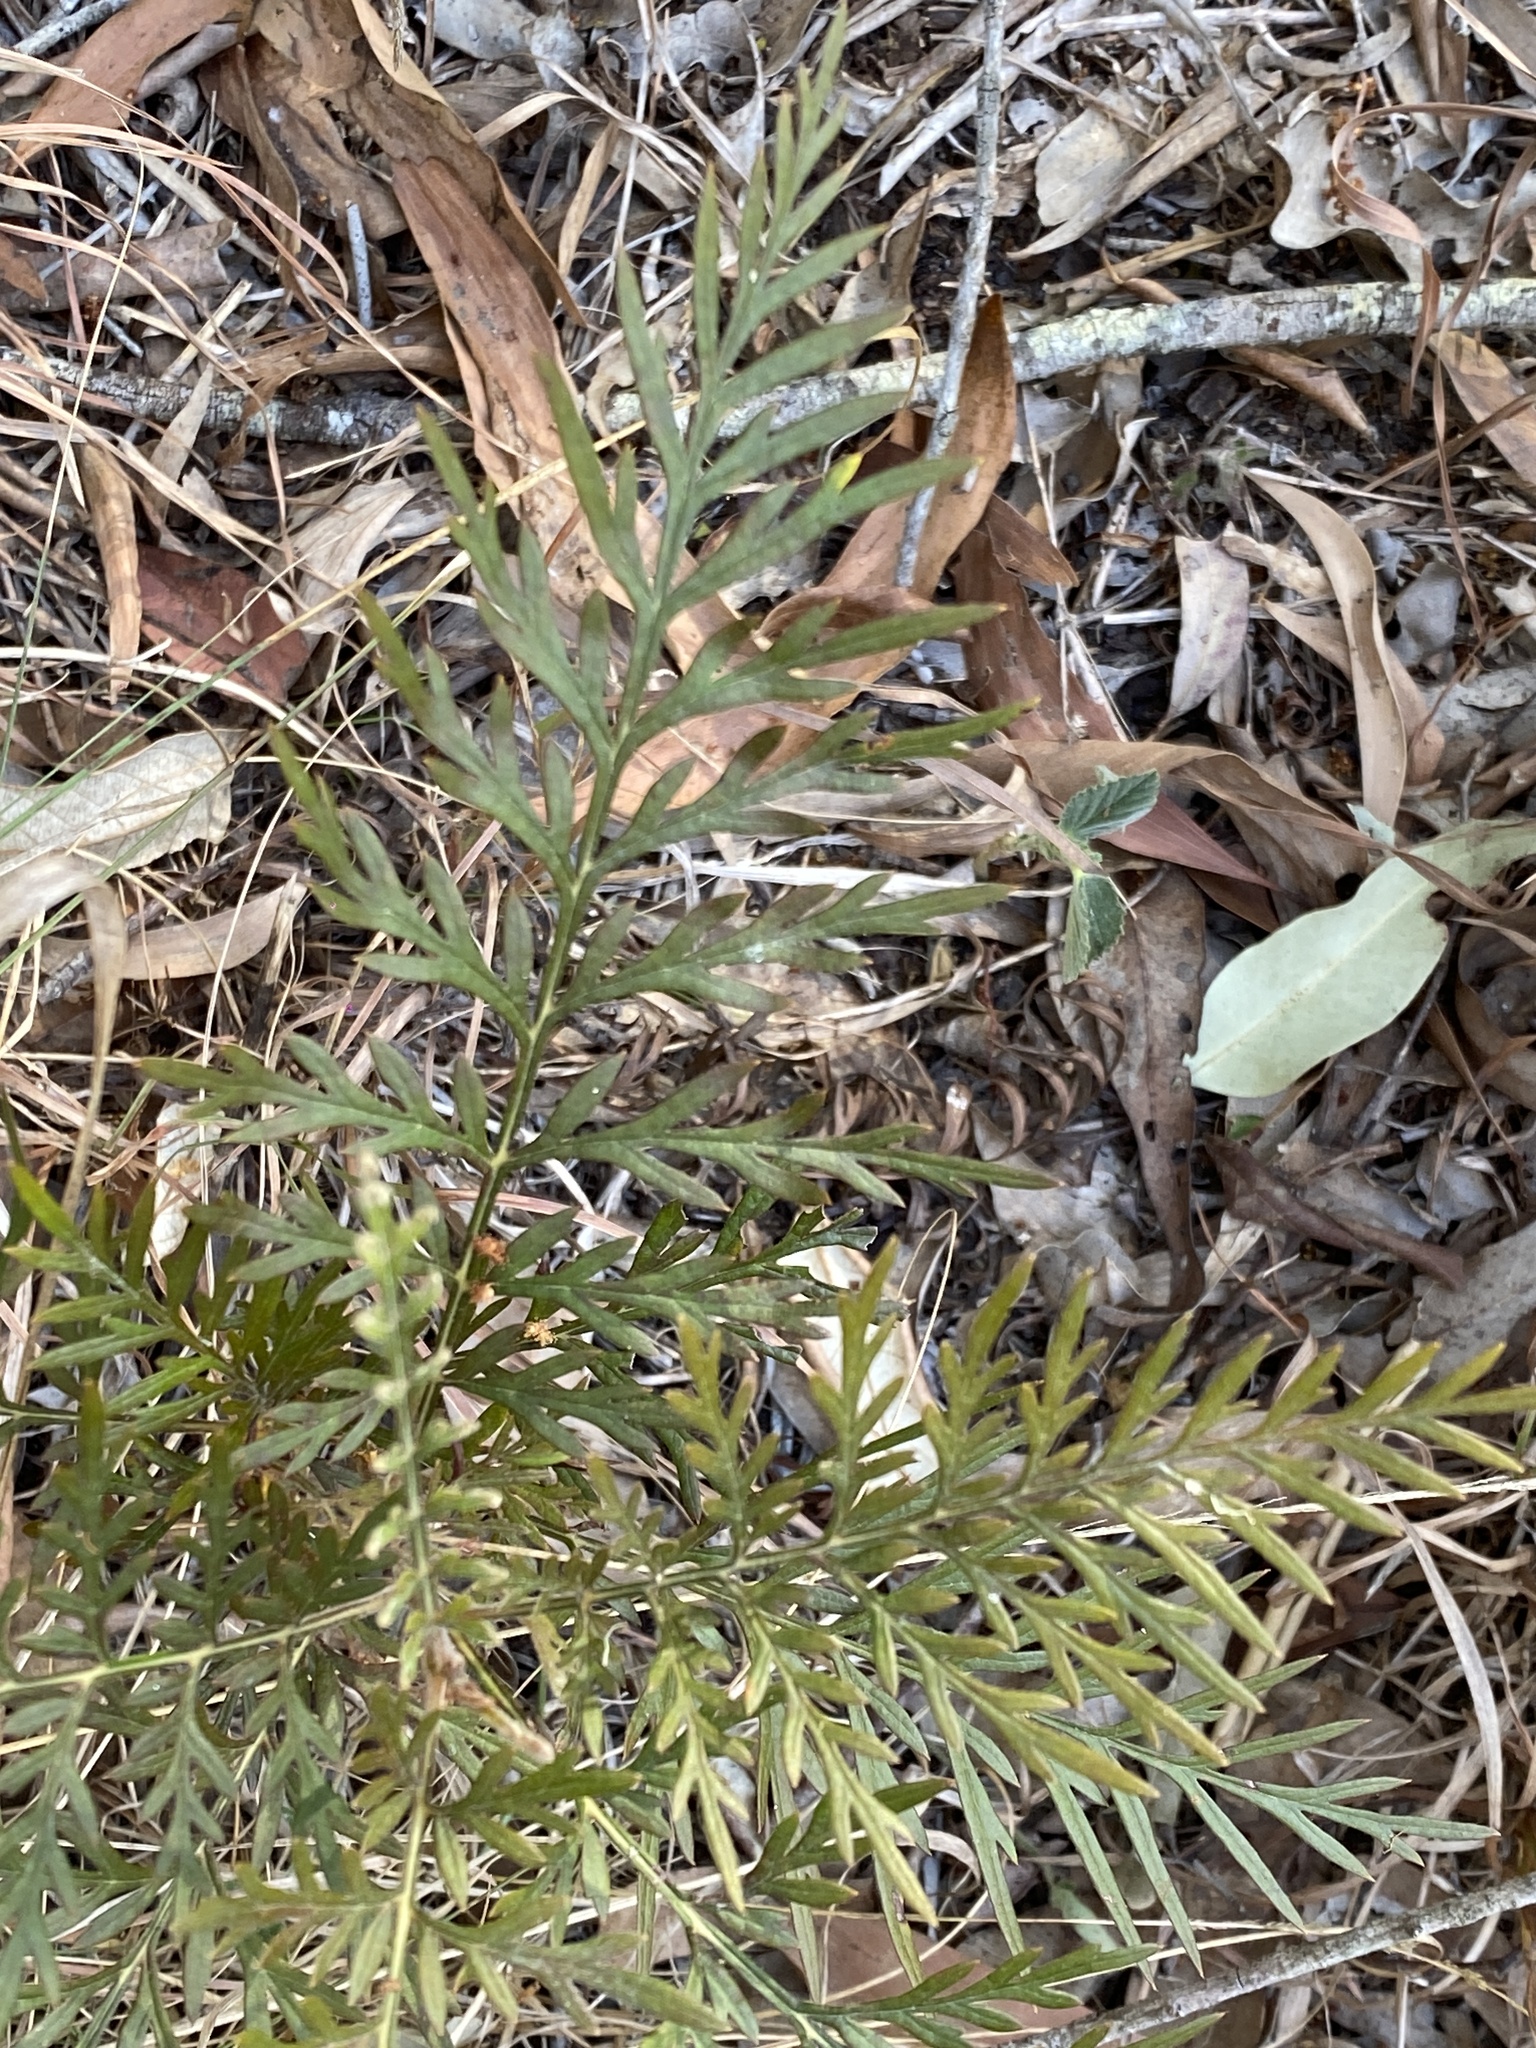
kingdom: Plantae
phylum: Tracheophyta
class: Magnoliopsida
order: Proteales
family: Proteaceae
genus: Grevillea
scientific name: Grevillea robusta
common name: Silkoak
